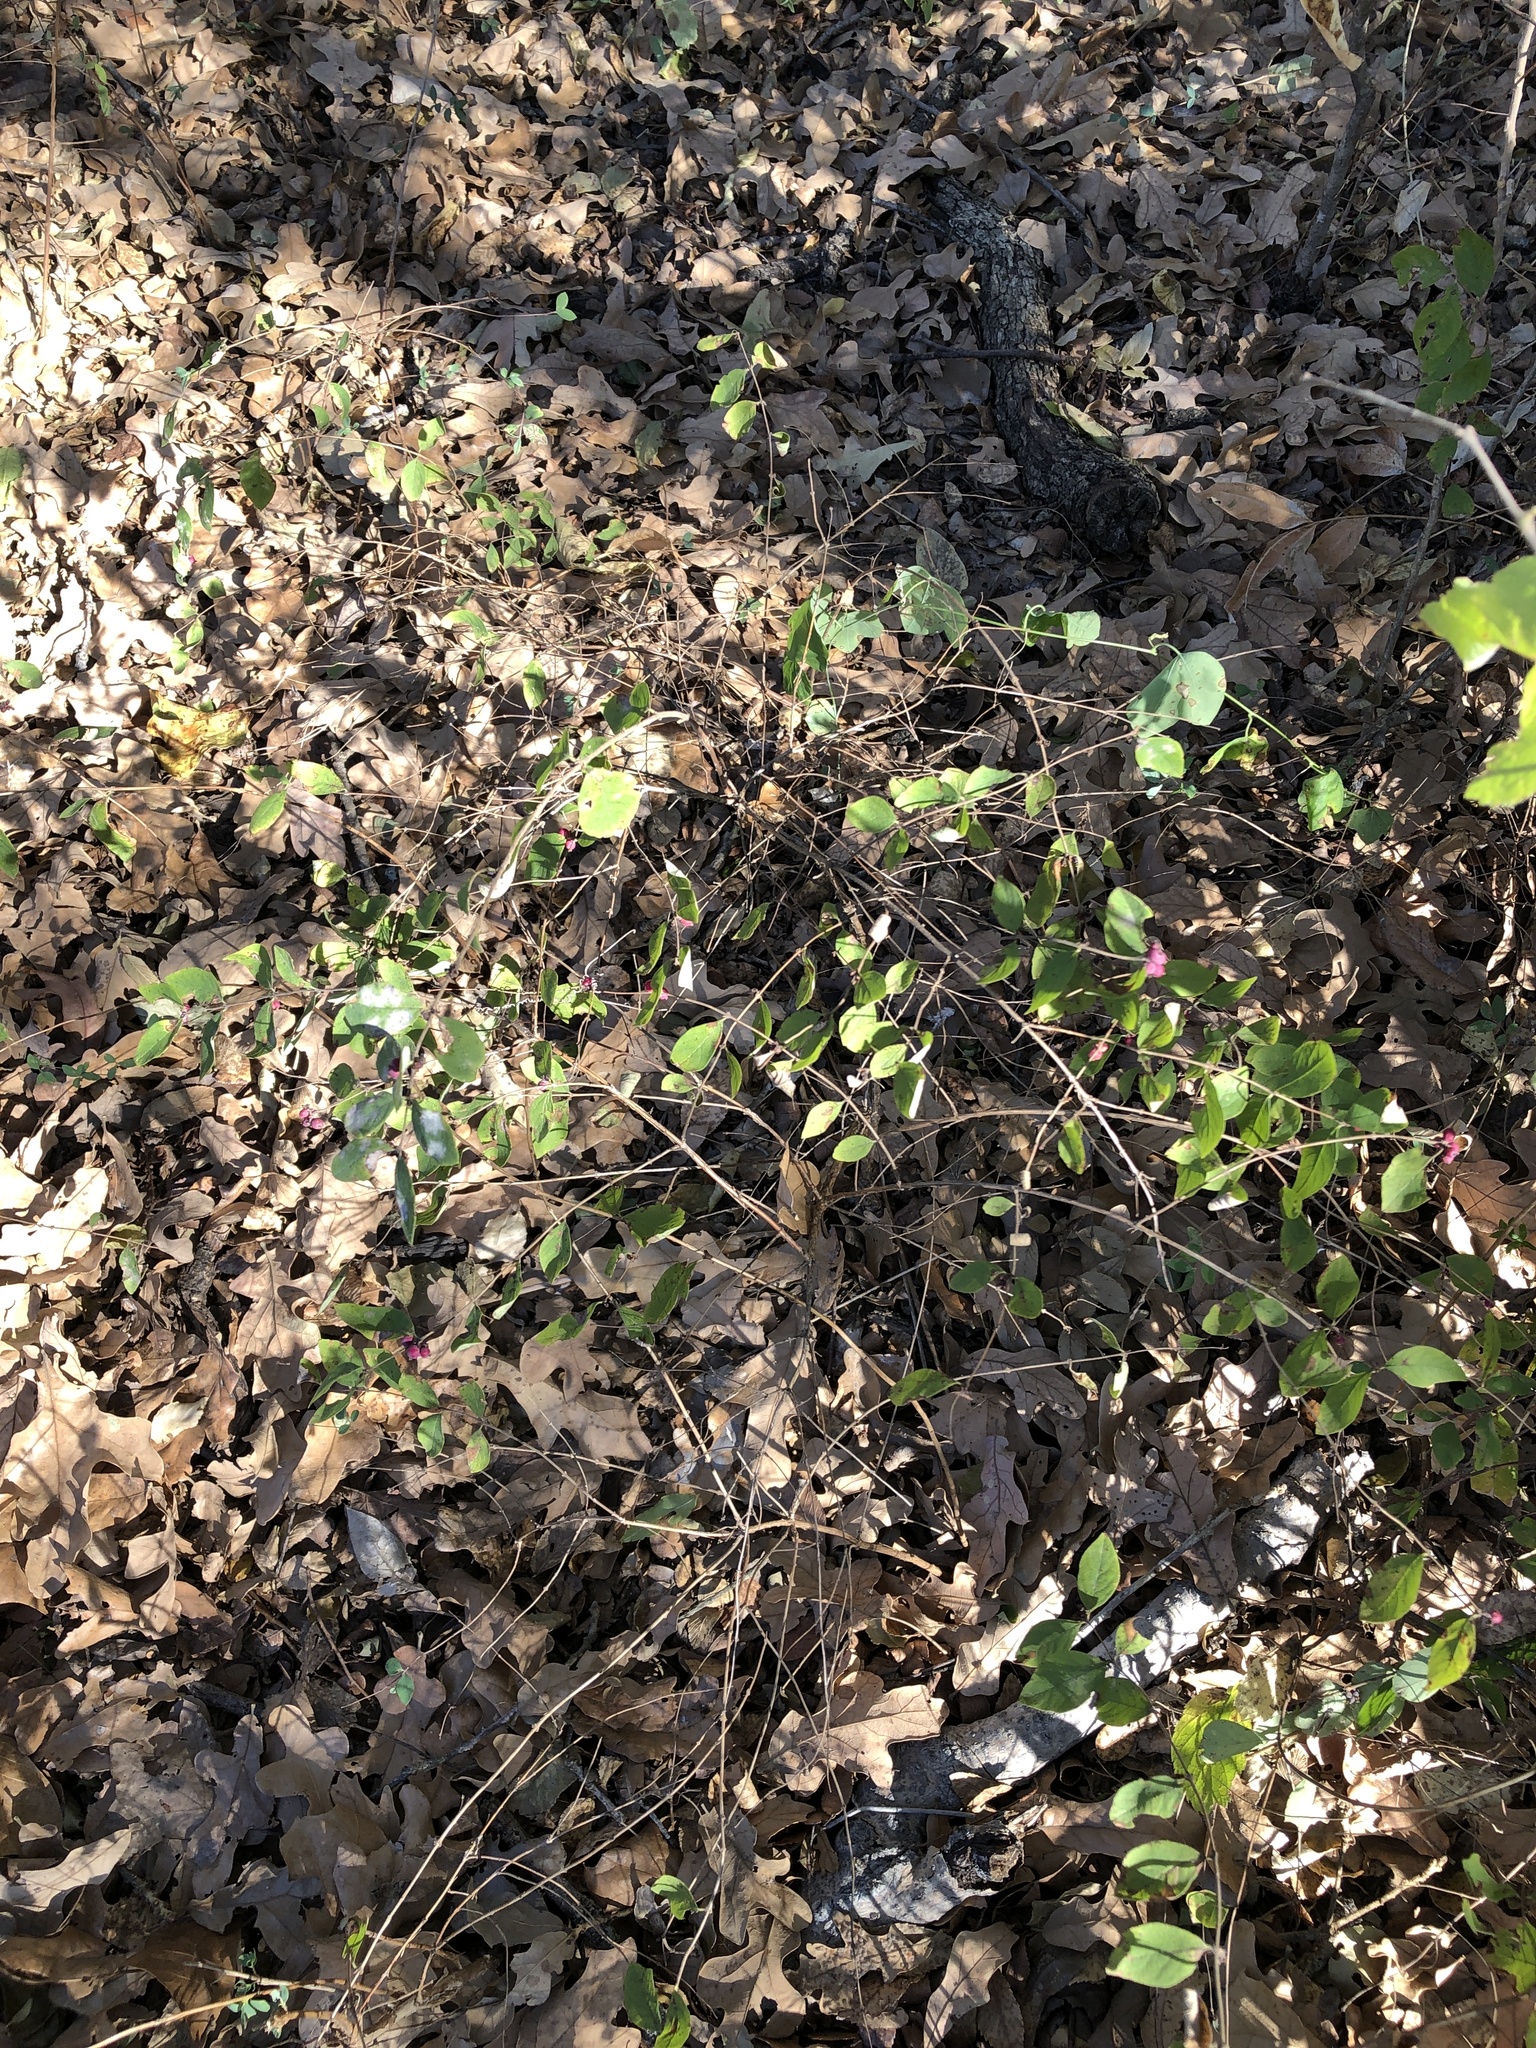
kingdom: Plantae
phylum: Tracheophyta
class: Magnoliopsida
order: Dipsacales
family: Caprifoliaceae
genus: Symphoricarpos
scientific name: Symphoricarpos orbiculatus
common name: Coralberry
